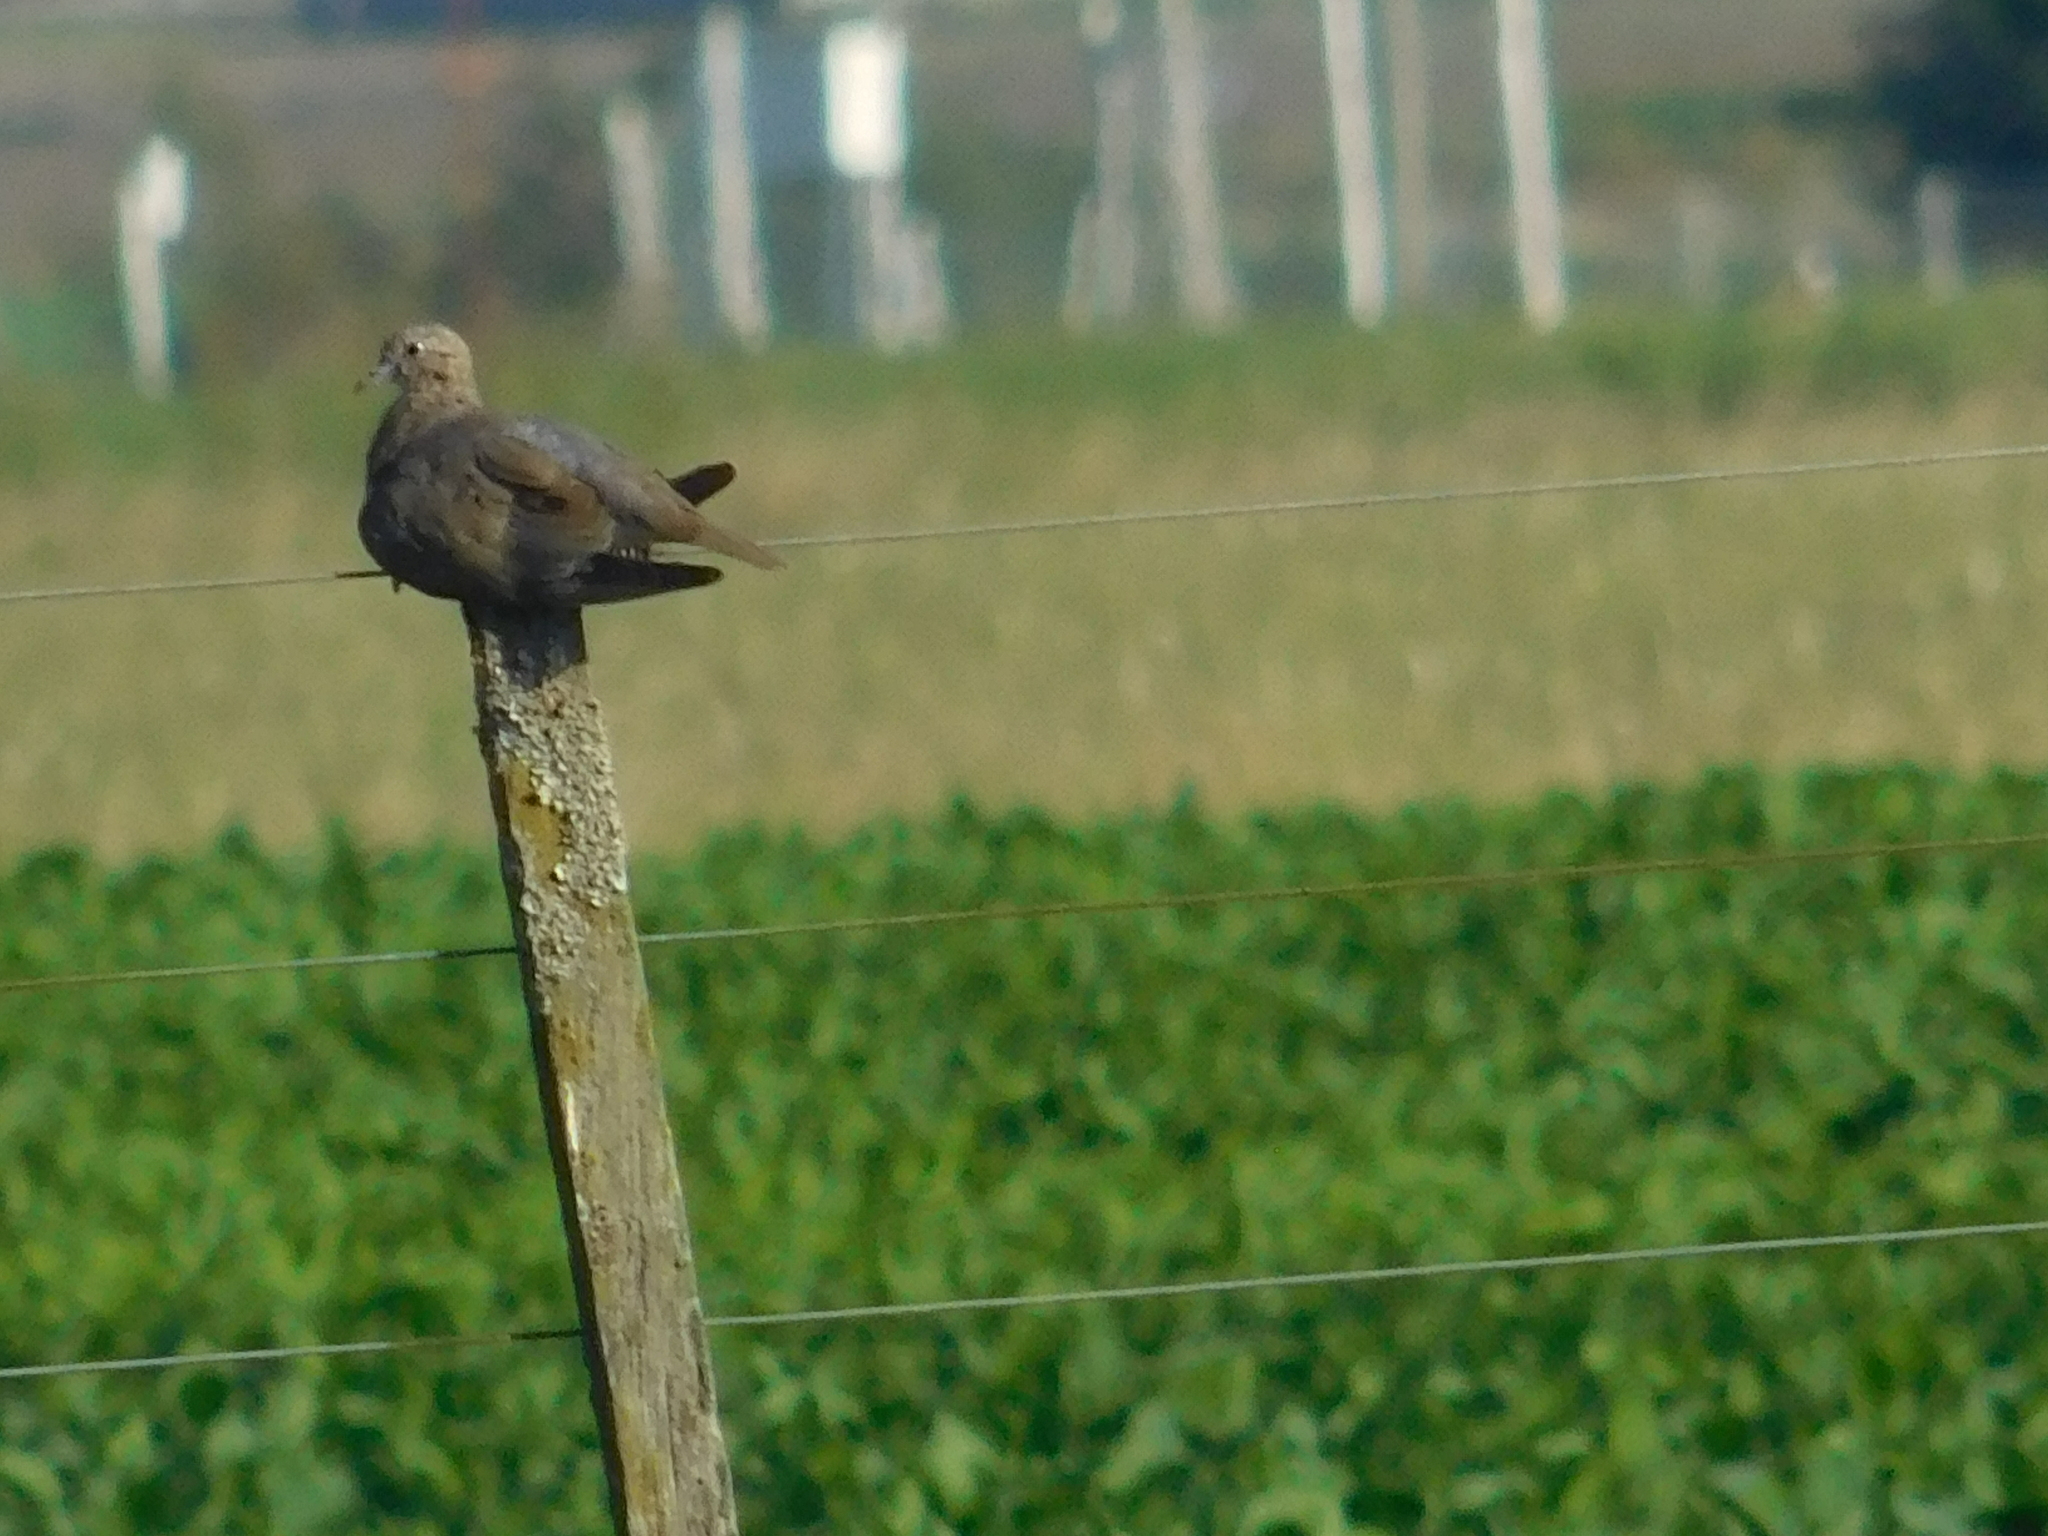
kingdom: Animalia
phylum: Chordata
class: Aves
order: Columbiformes
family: Columbidae
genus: Zenaida
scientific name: Zenaida auriculata
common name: Eared dove
